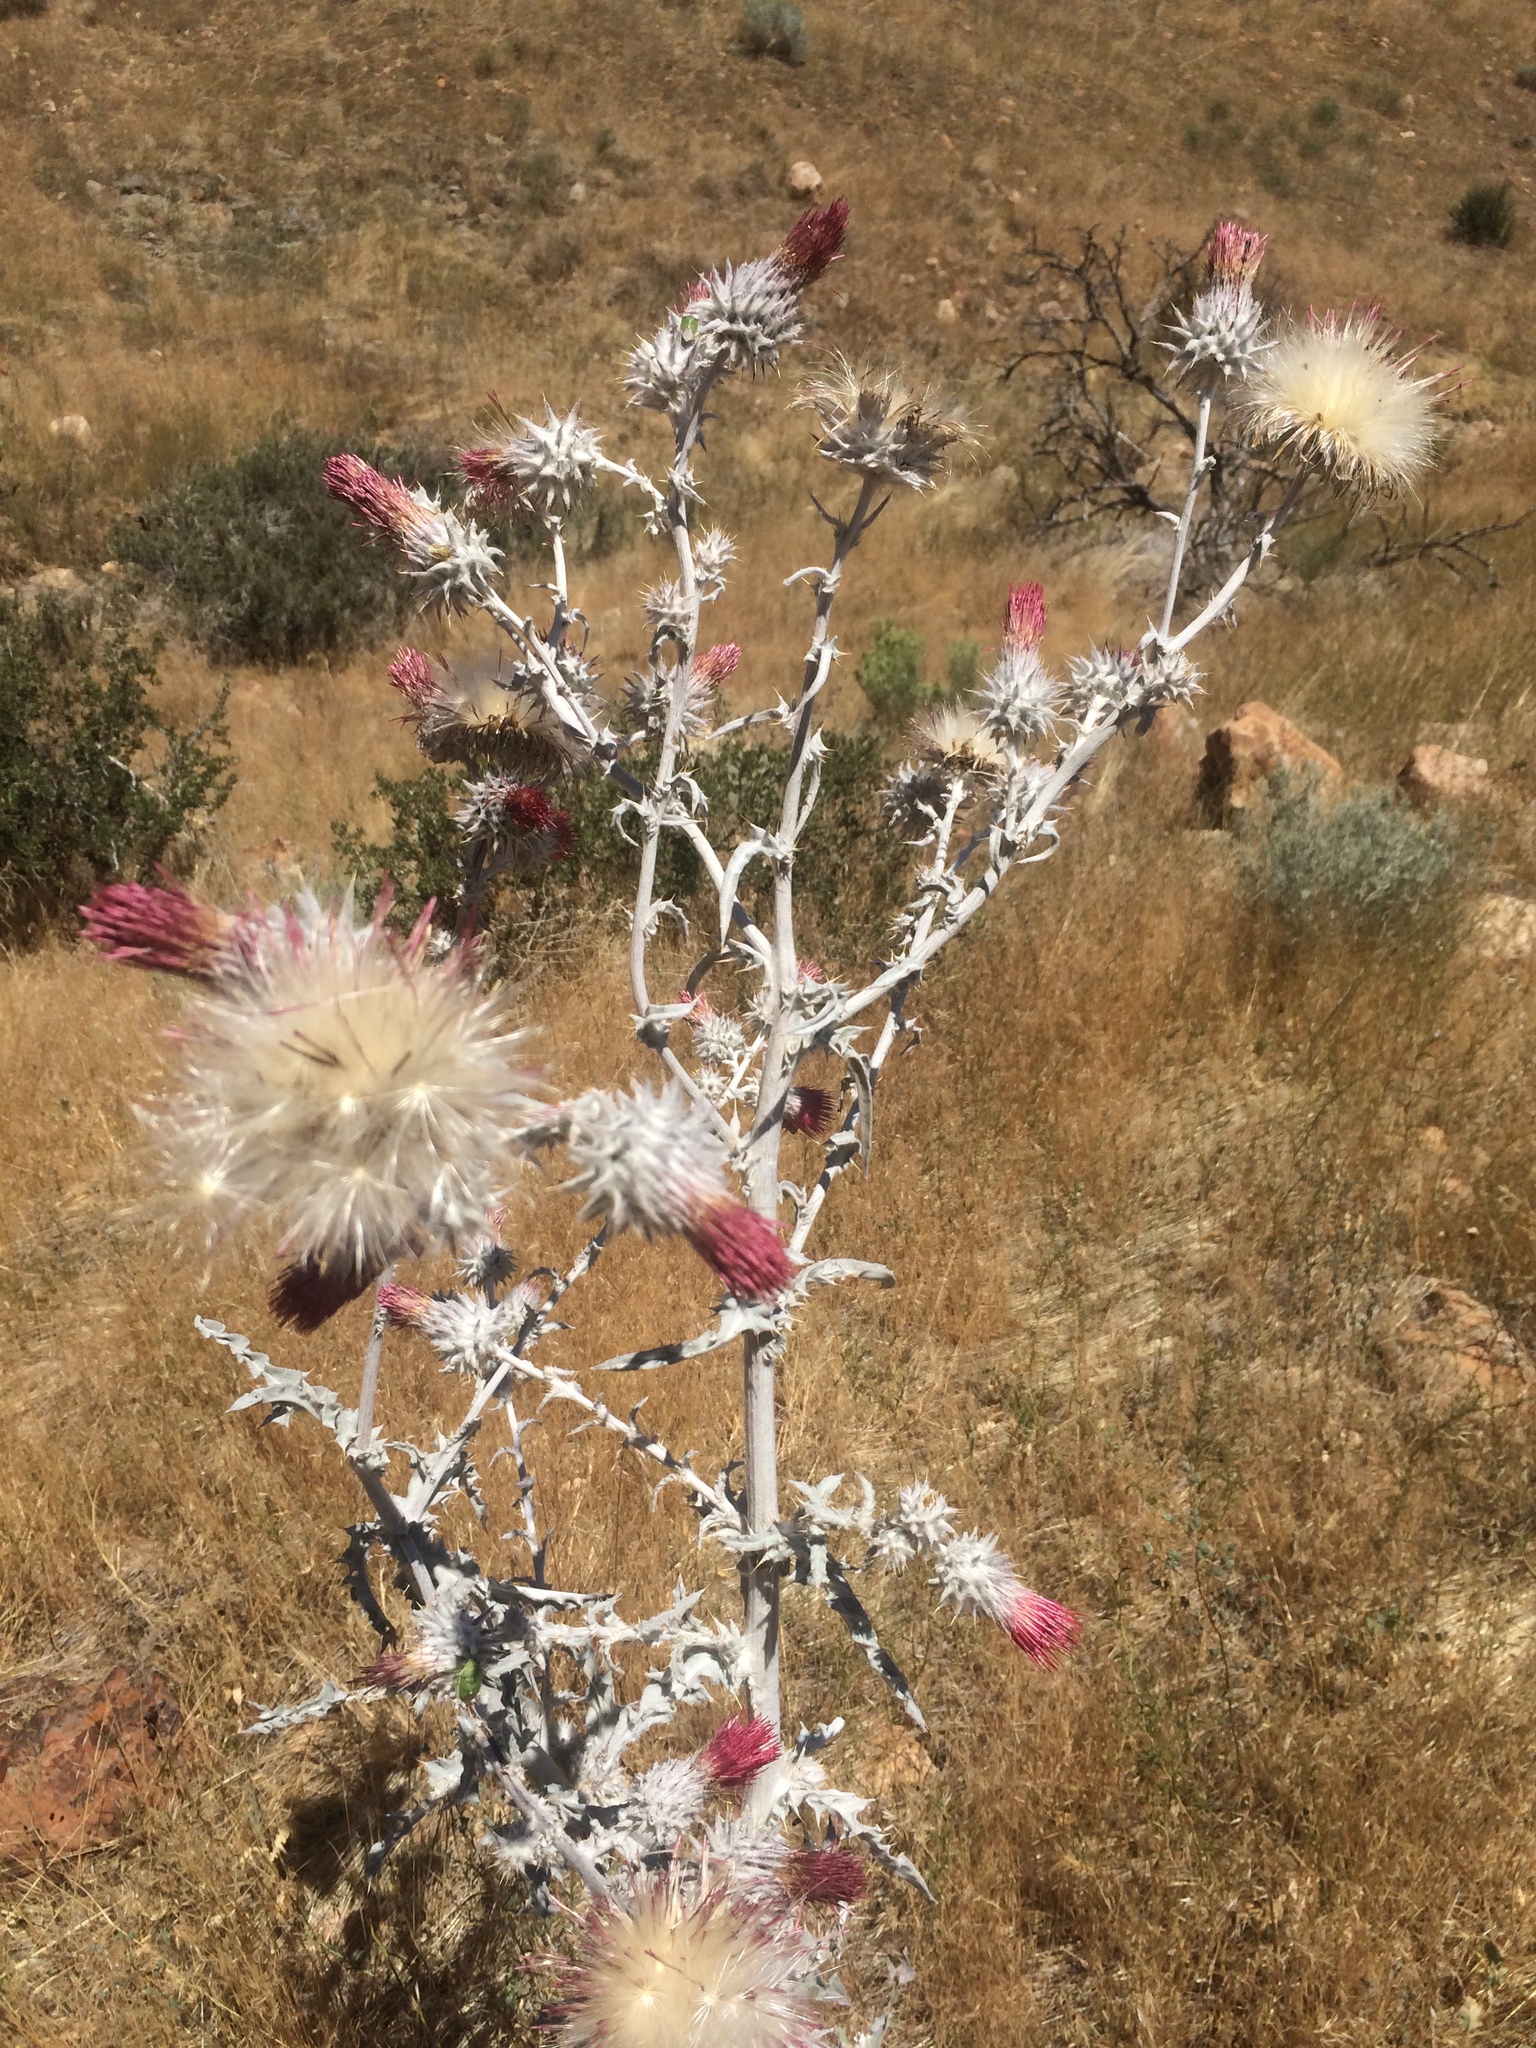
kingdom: Plantae
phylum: Tracheophyta
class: Magnoliopsida
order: Asterales
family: Asteraceae
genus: Cirsium
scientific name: Cirsium occidentale
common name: Western thistle
